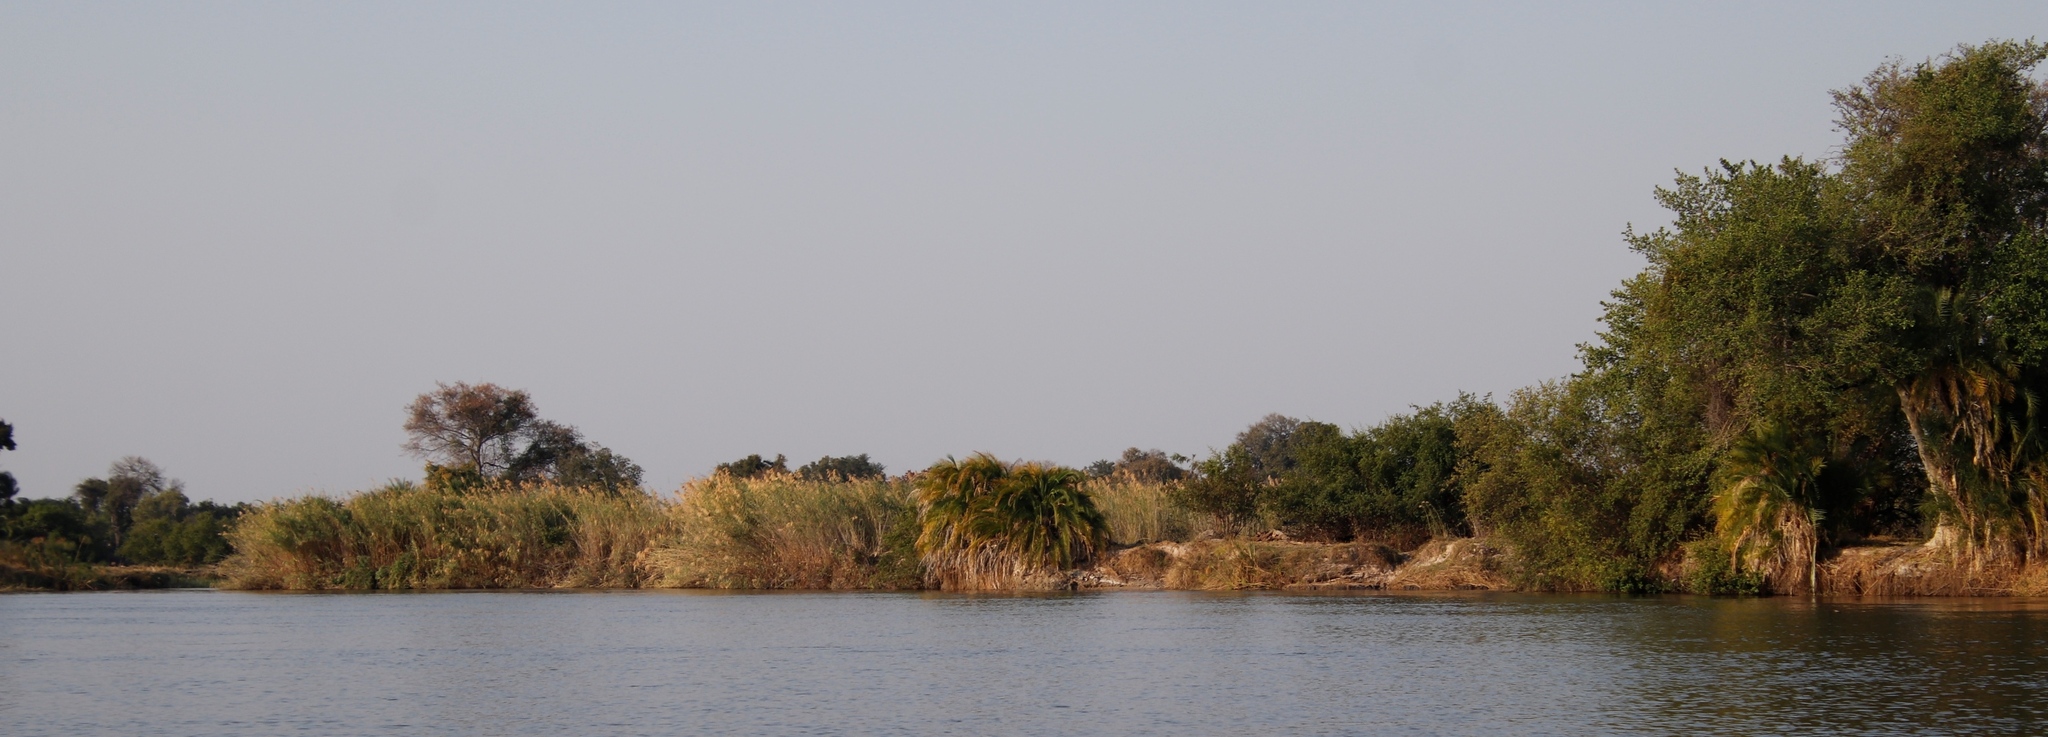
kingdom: Plantae
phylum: Tracheophyta
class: Liliopsida
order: Arecales
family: Arecaceae
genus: Phoenix
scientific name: Phoenix reclinata
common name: Senegal date palm
